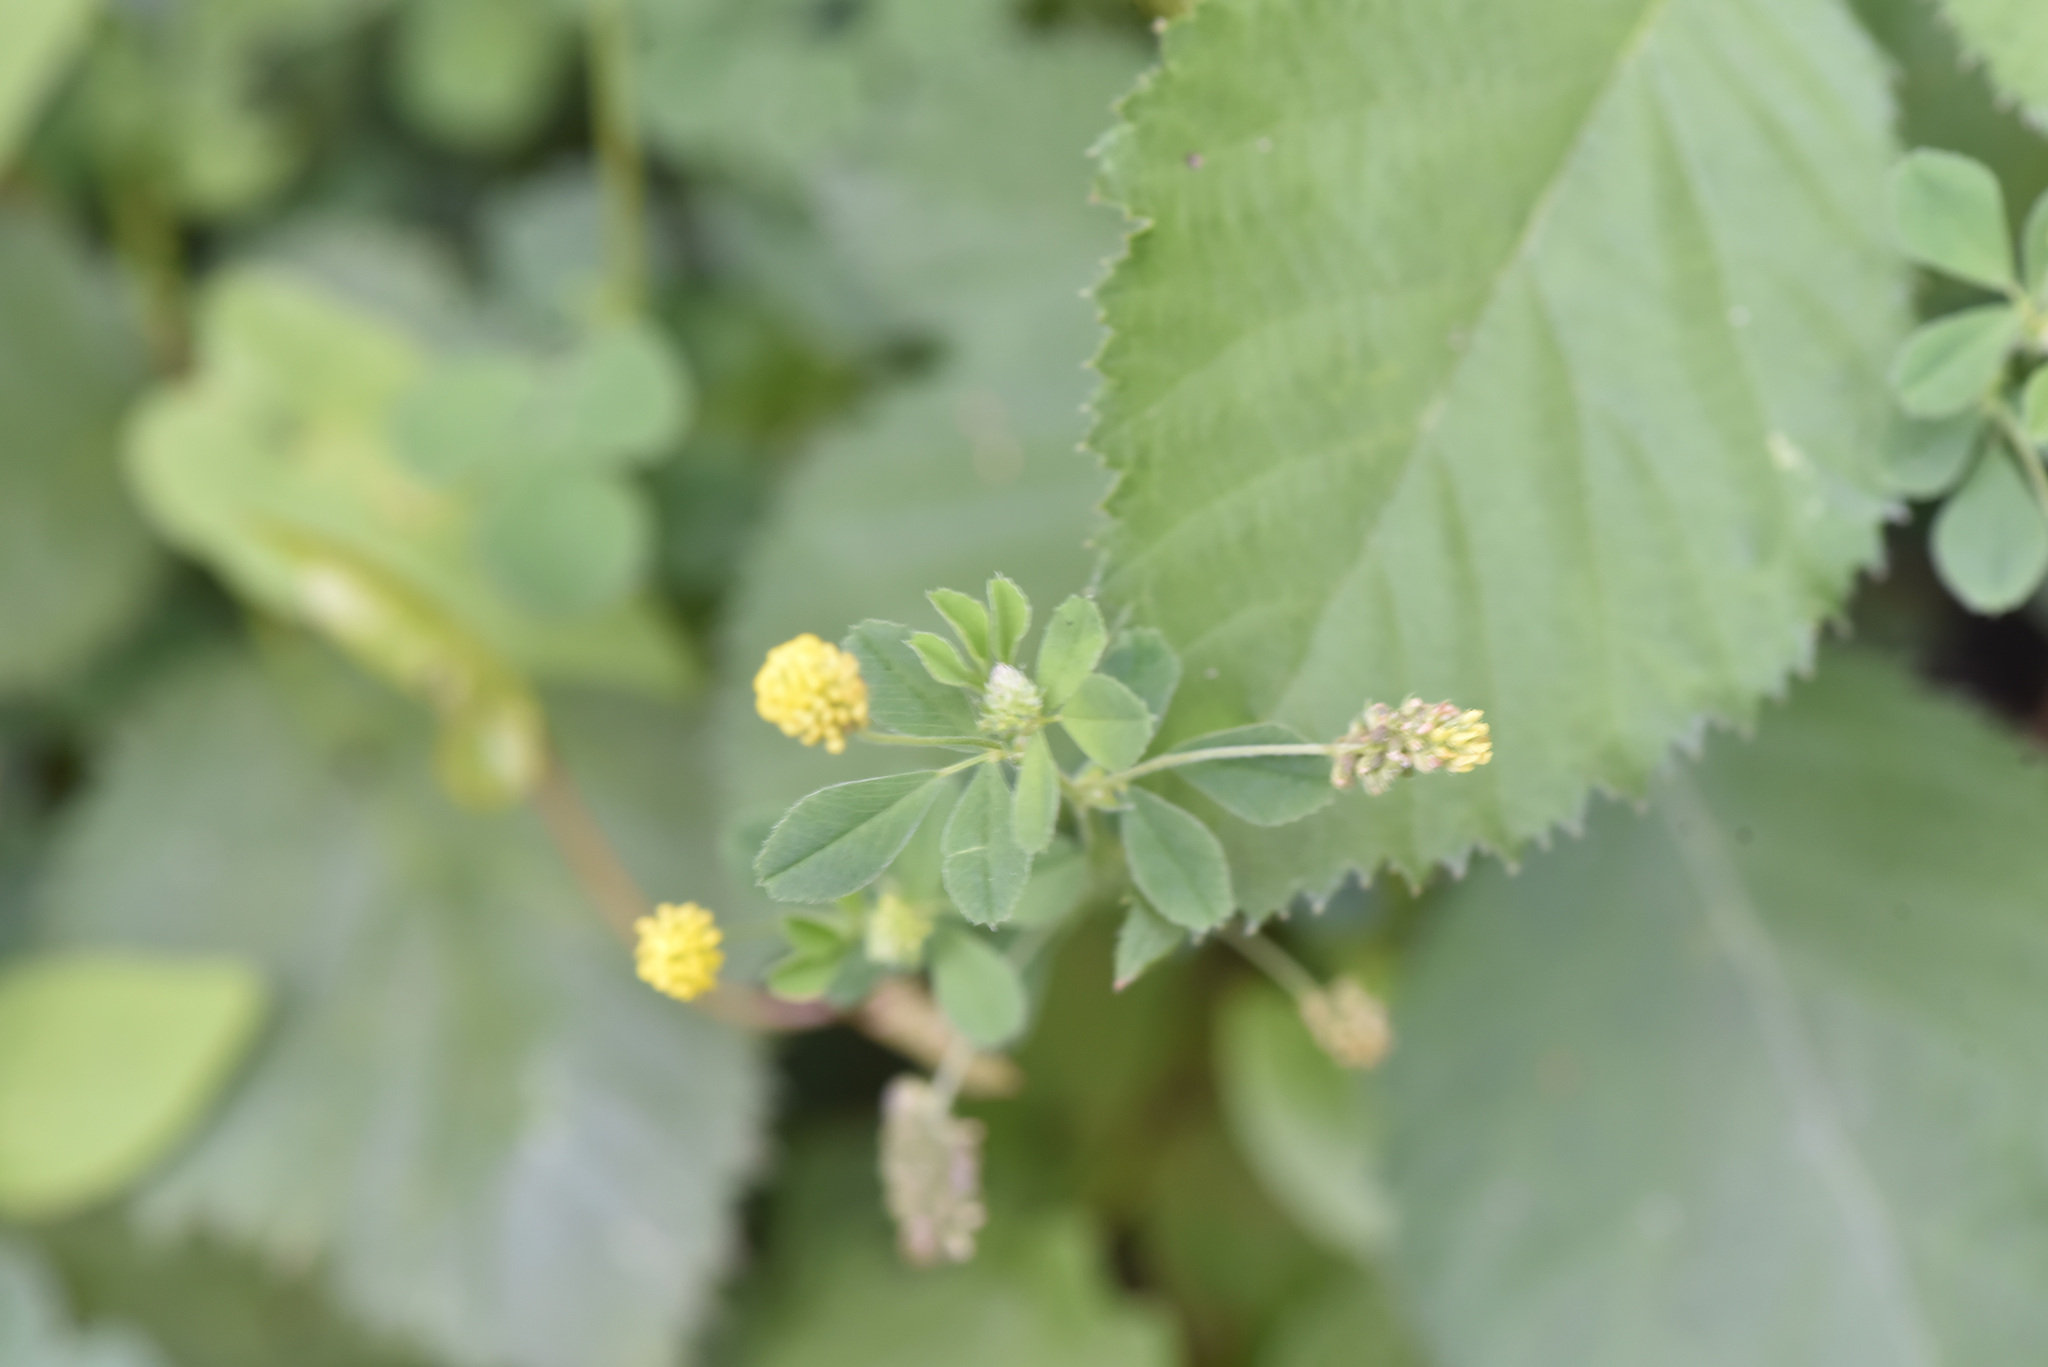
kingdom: Plantae
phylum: Tracheophyta
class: Magnoliopsida
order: Fabales
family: Fabaceae
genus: Medicago
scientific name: Medicago lupulina
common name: Black medick
